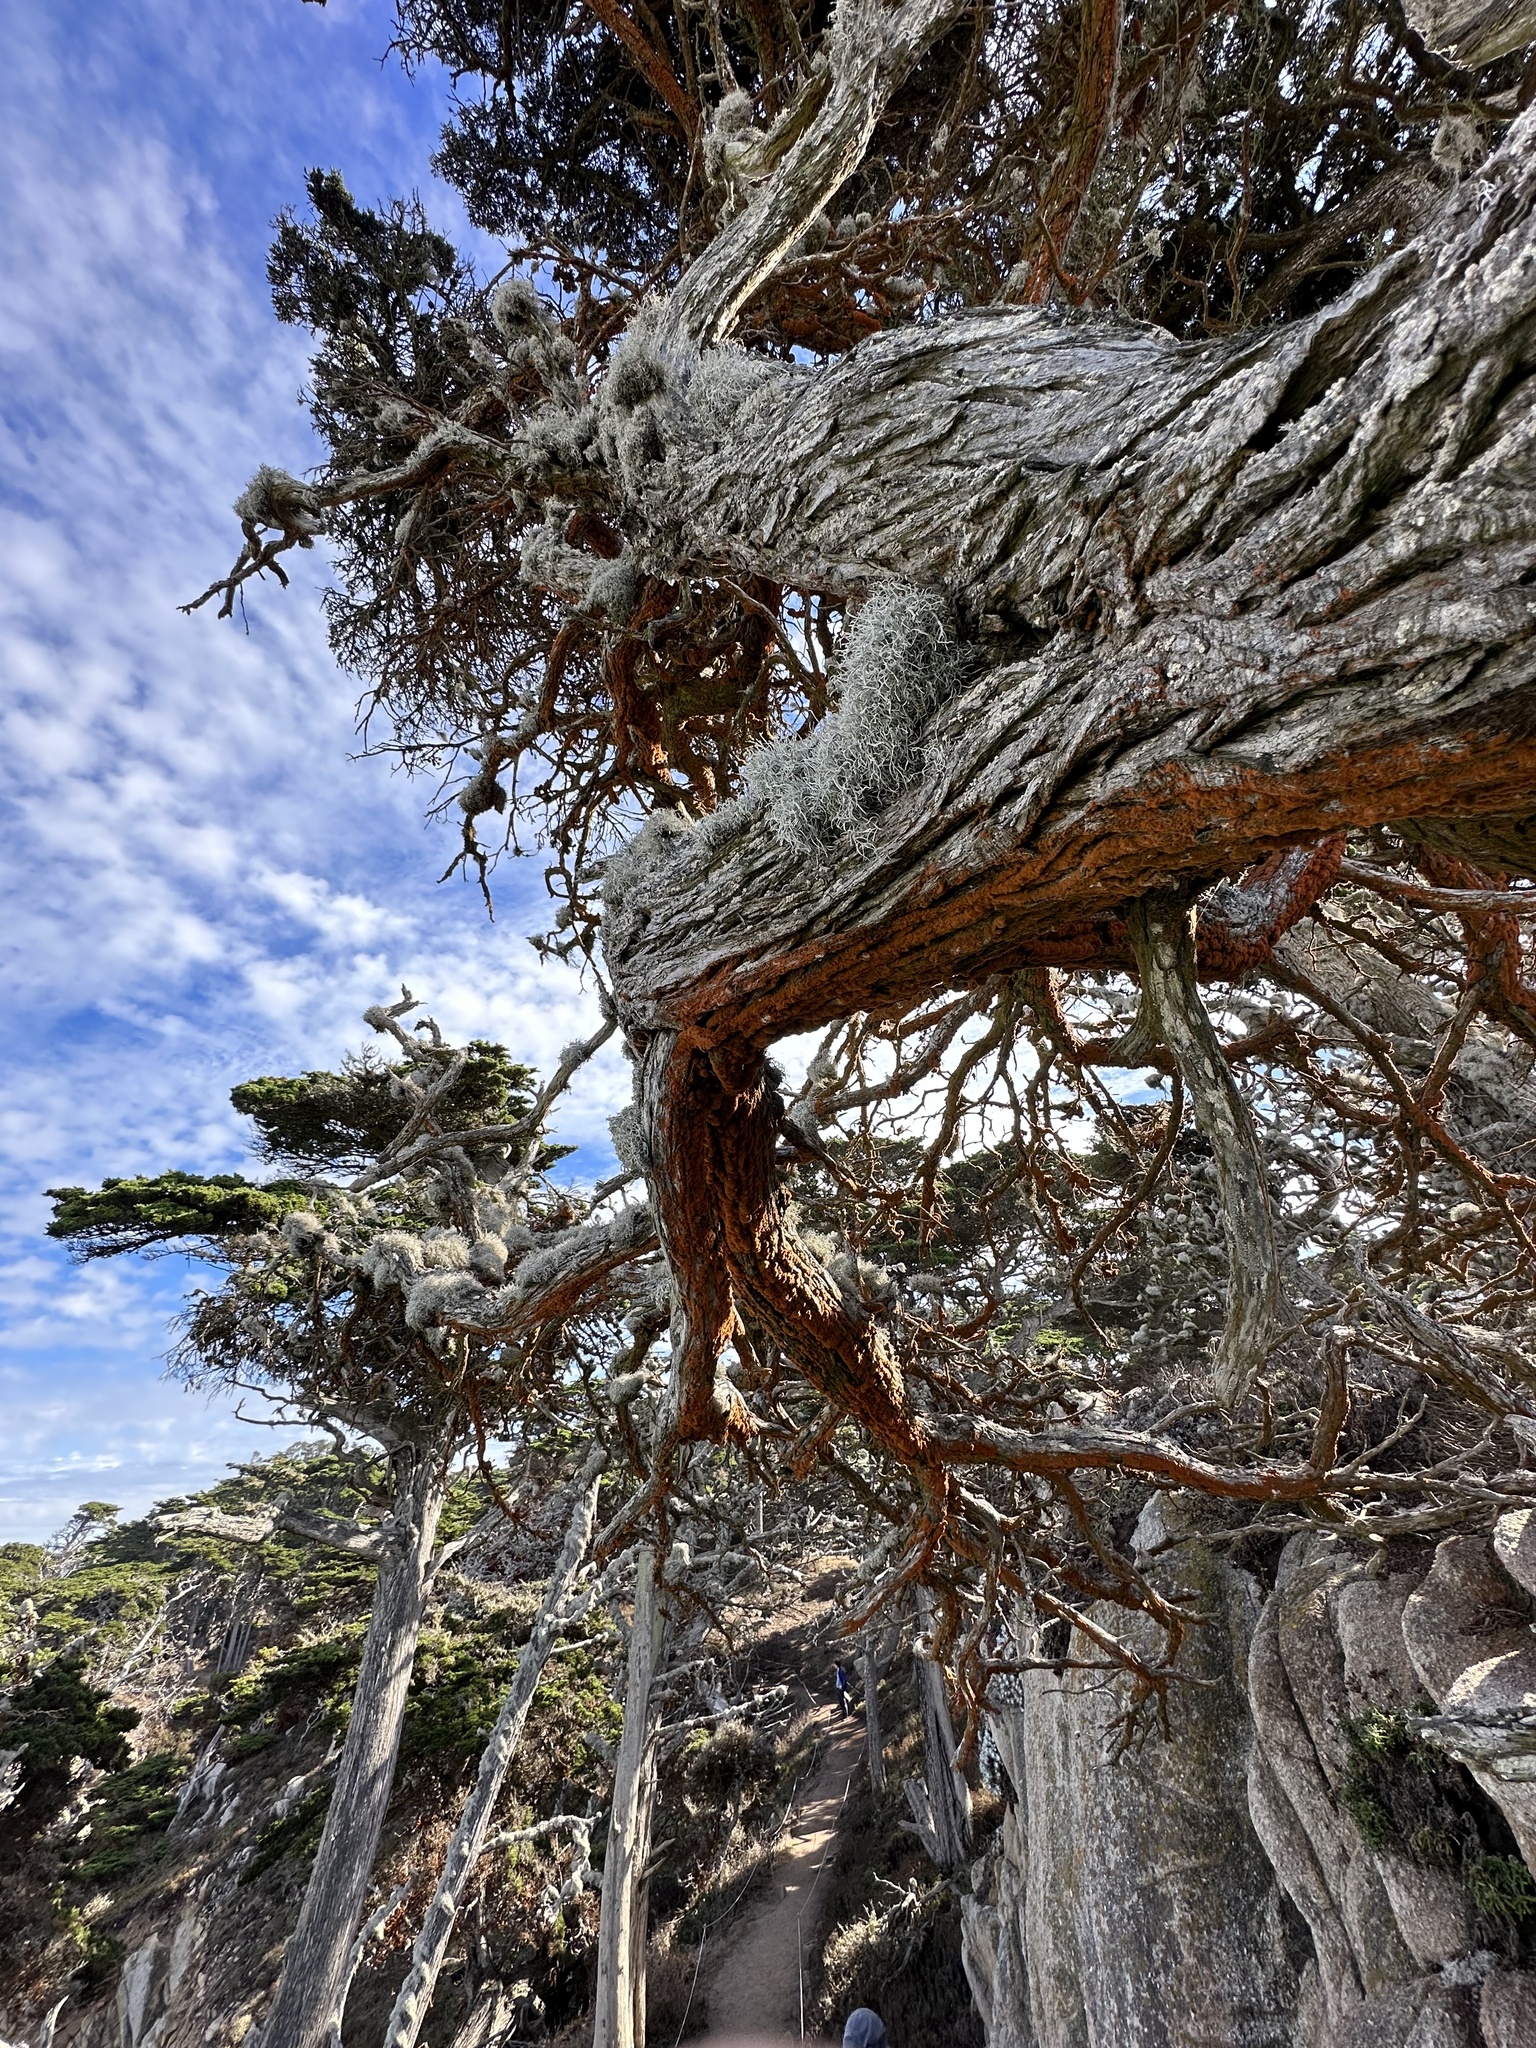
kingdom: Plantae
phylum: Chlorophyta
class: Ulvophyceae
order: Trentepohliales
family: Trentepohliaceae
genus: Trentepohlia
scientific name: Trentepohlia aurea
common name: Orange rock hair
